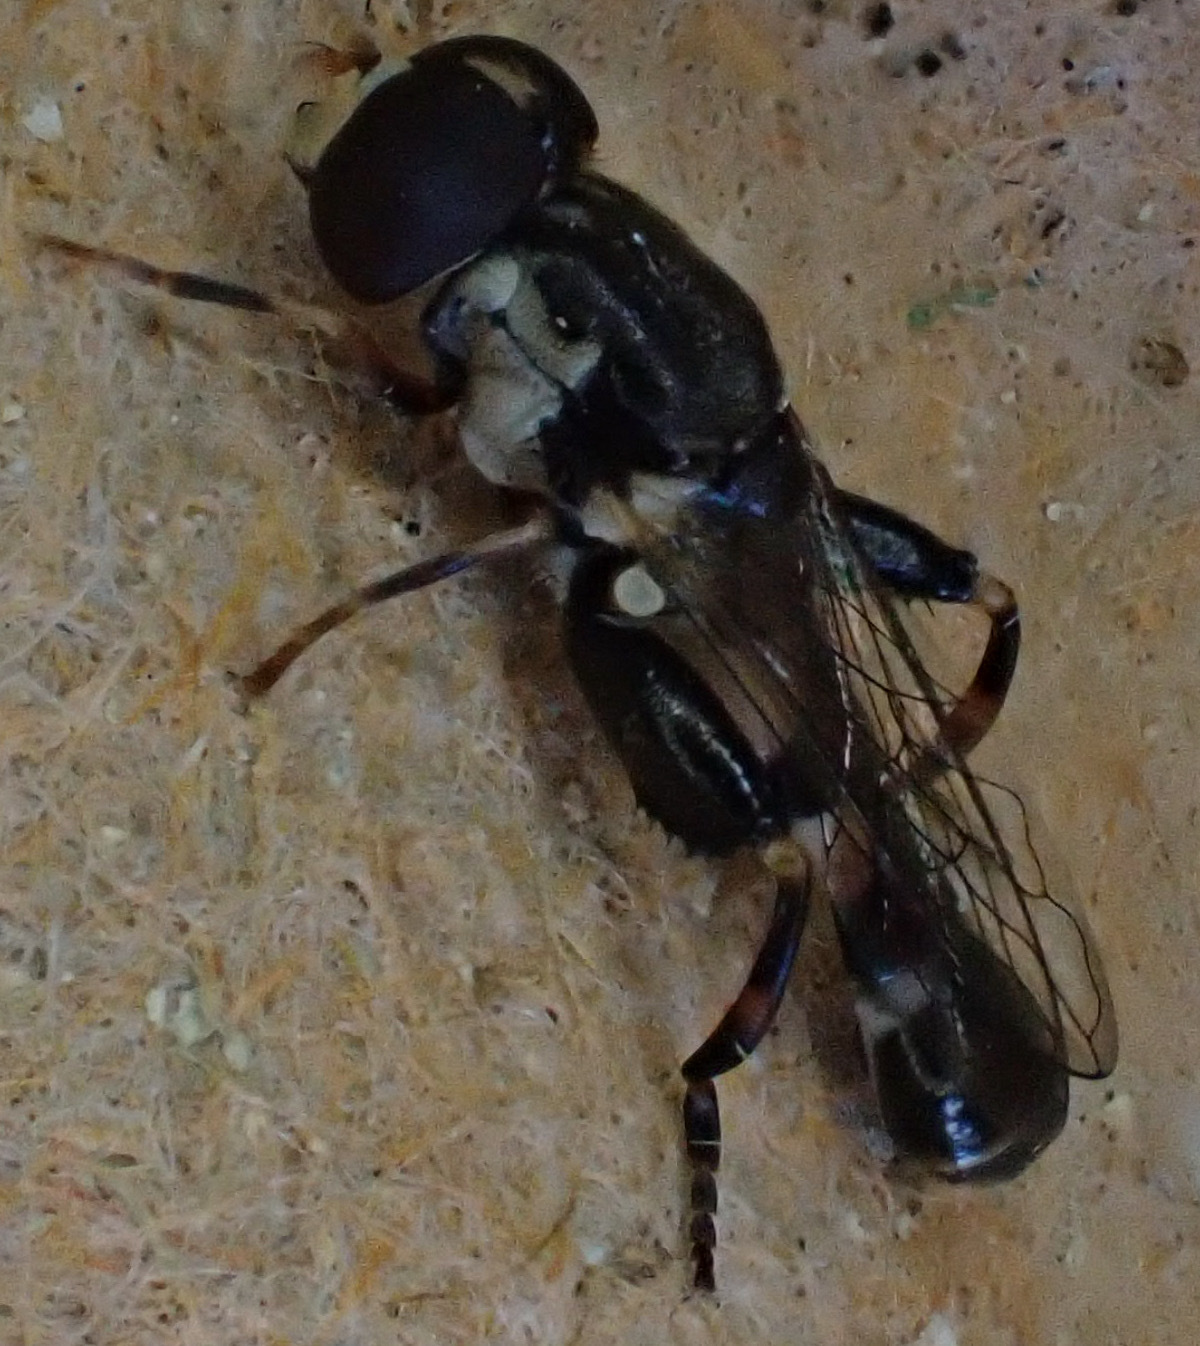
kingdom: Animalia
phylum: Arthropoda
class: Insecta
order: Diptera
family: Syrphidae
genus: Syritta
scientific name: Syritta pipiens
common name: Hover fly
